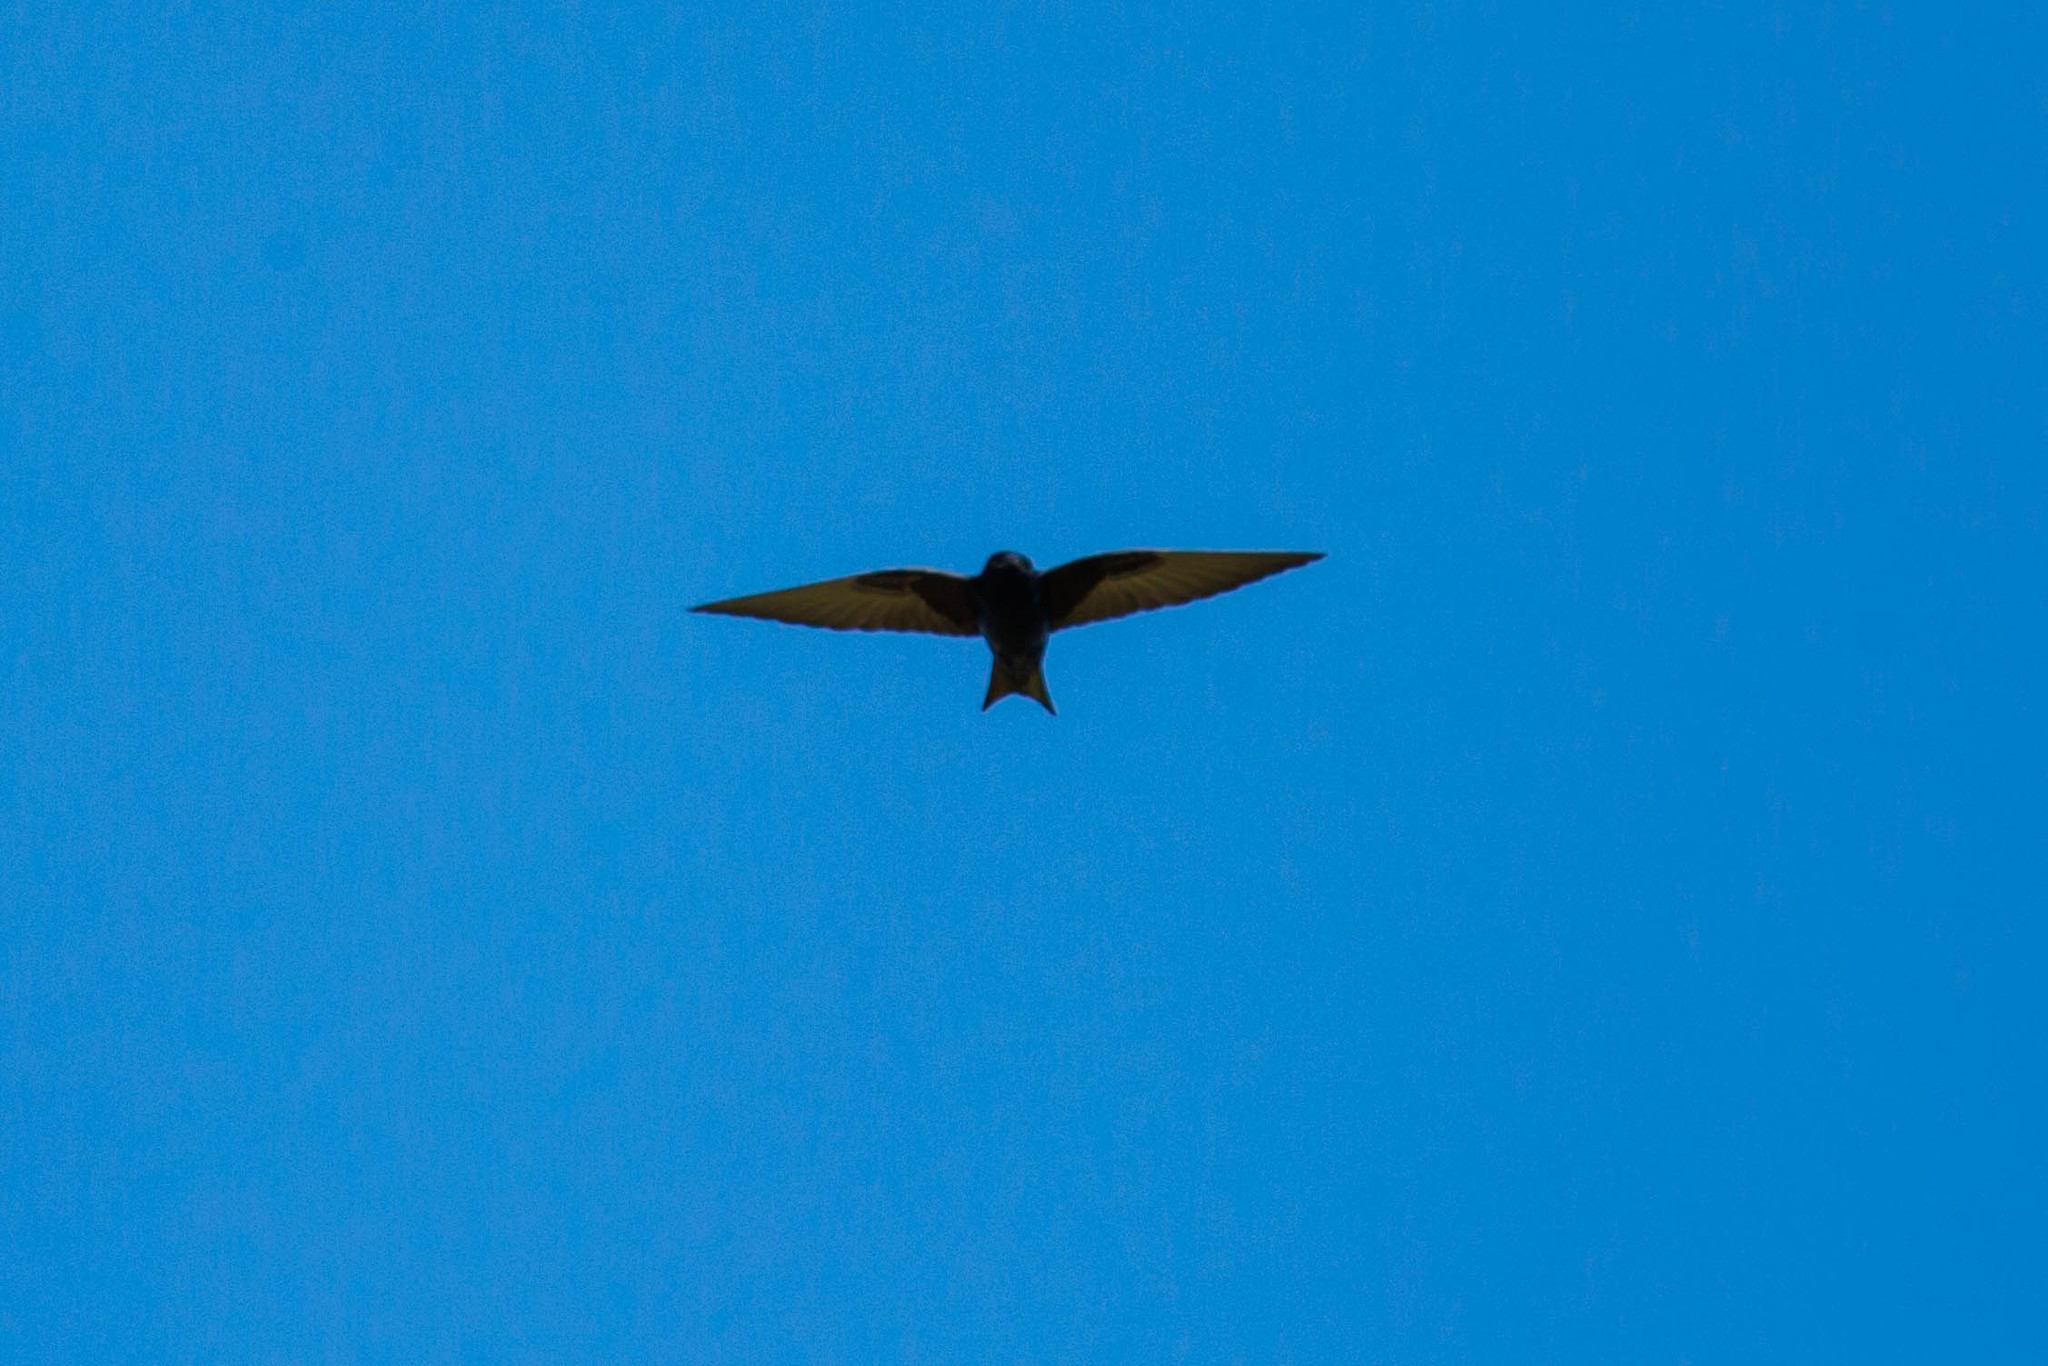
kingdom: Animalia
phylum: Chordata
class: Aves
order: Passeriformes
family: Hirundinidae
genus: Progne
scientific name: Progne subis
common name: Purple martin
